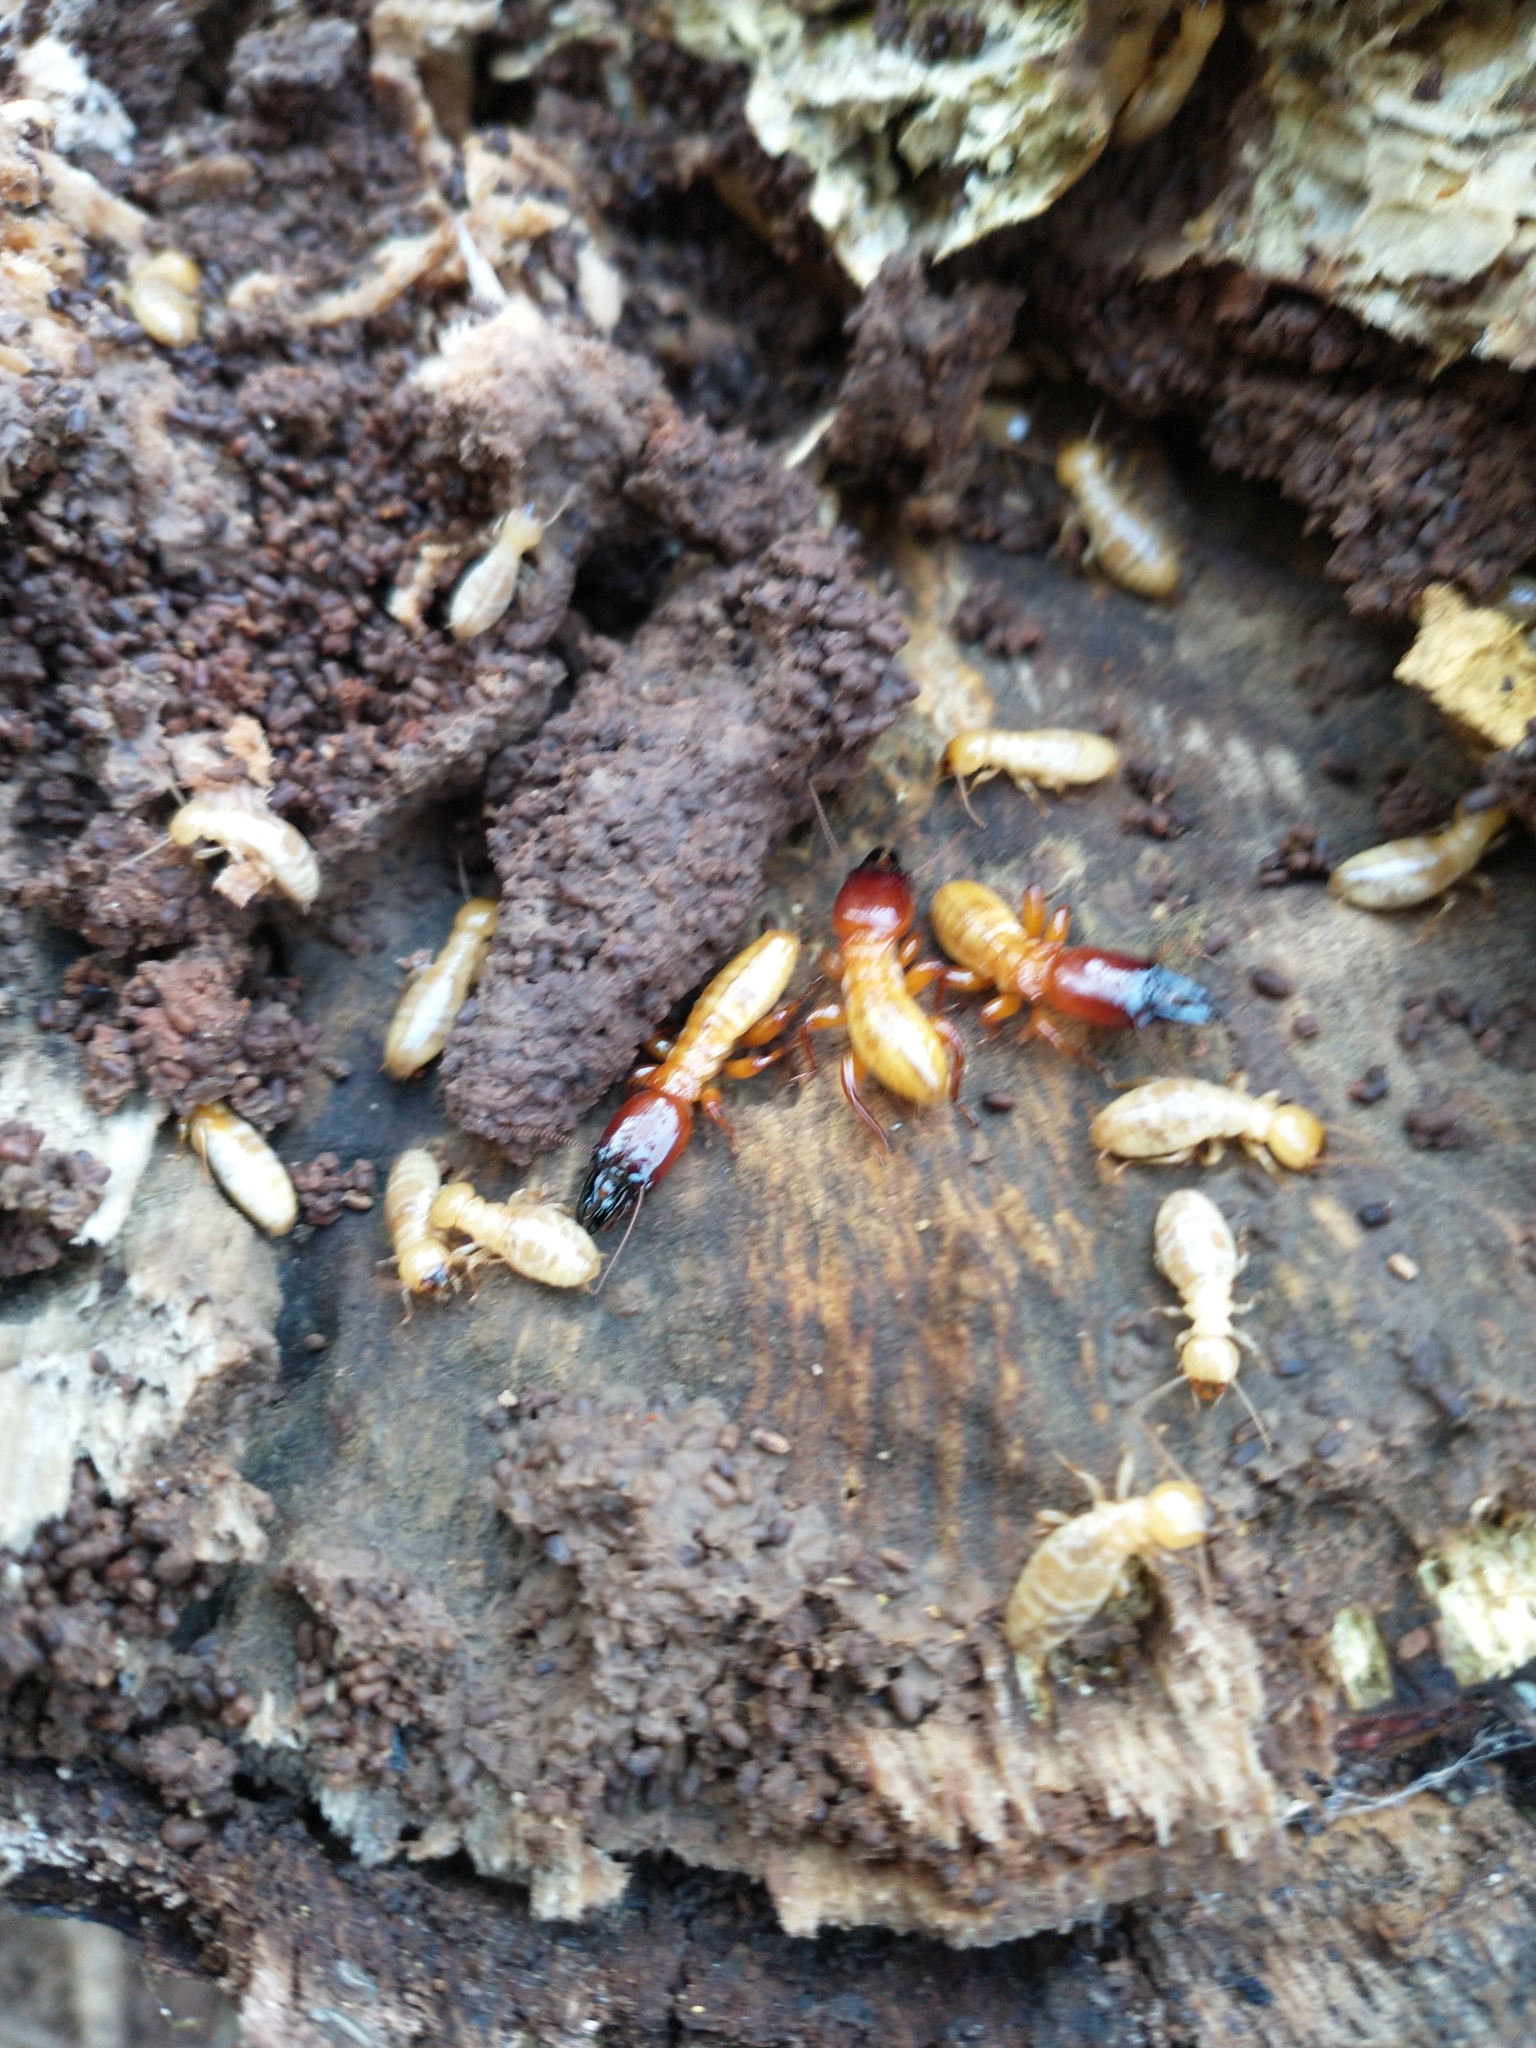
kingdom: Animalia
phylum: Arthropoda
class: Insecta
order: Blattodea
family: Archotermopsidae
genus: Zootermopsis
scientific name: Zootermopsis
